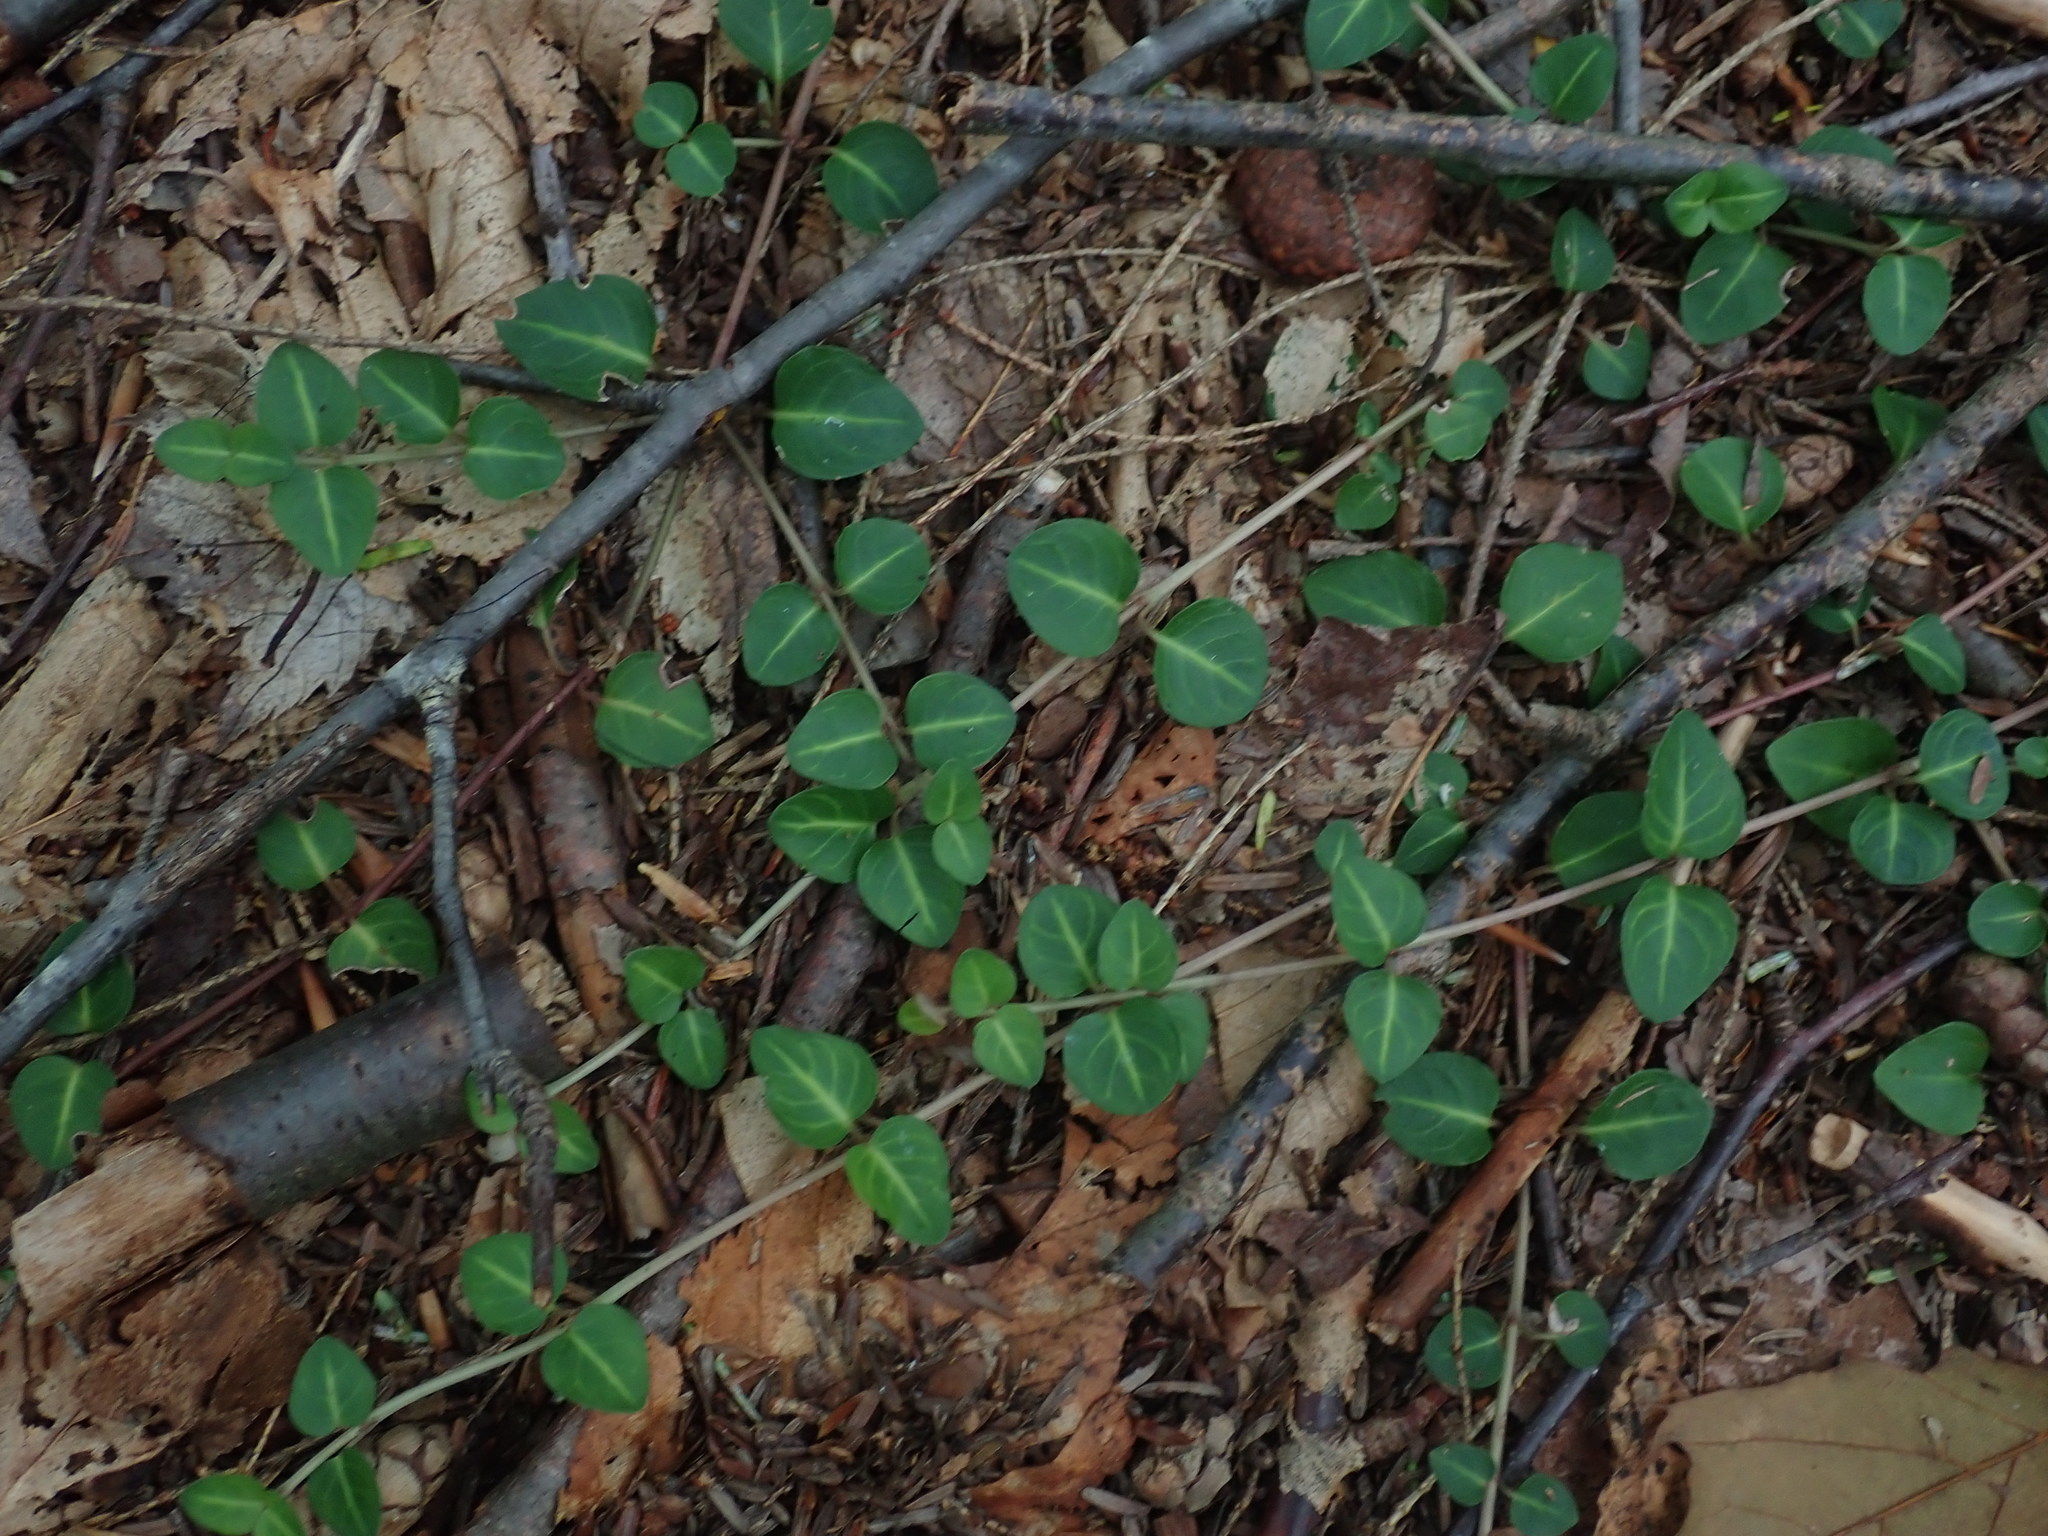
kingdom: Plantae
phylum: Tracheophyta
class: Magnoliopsida
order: Gentianales
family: Rubiaceae
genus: Mitchella
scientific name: Mitchella repens
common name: Partridge-berry
